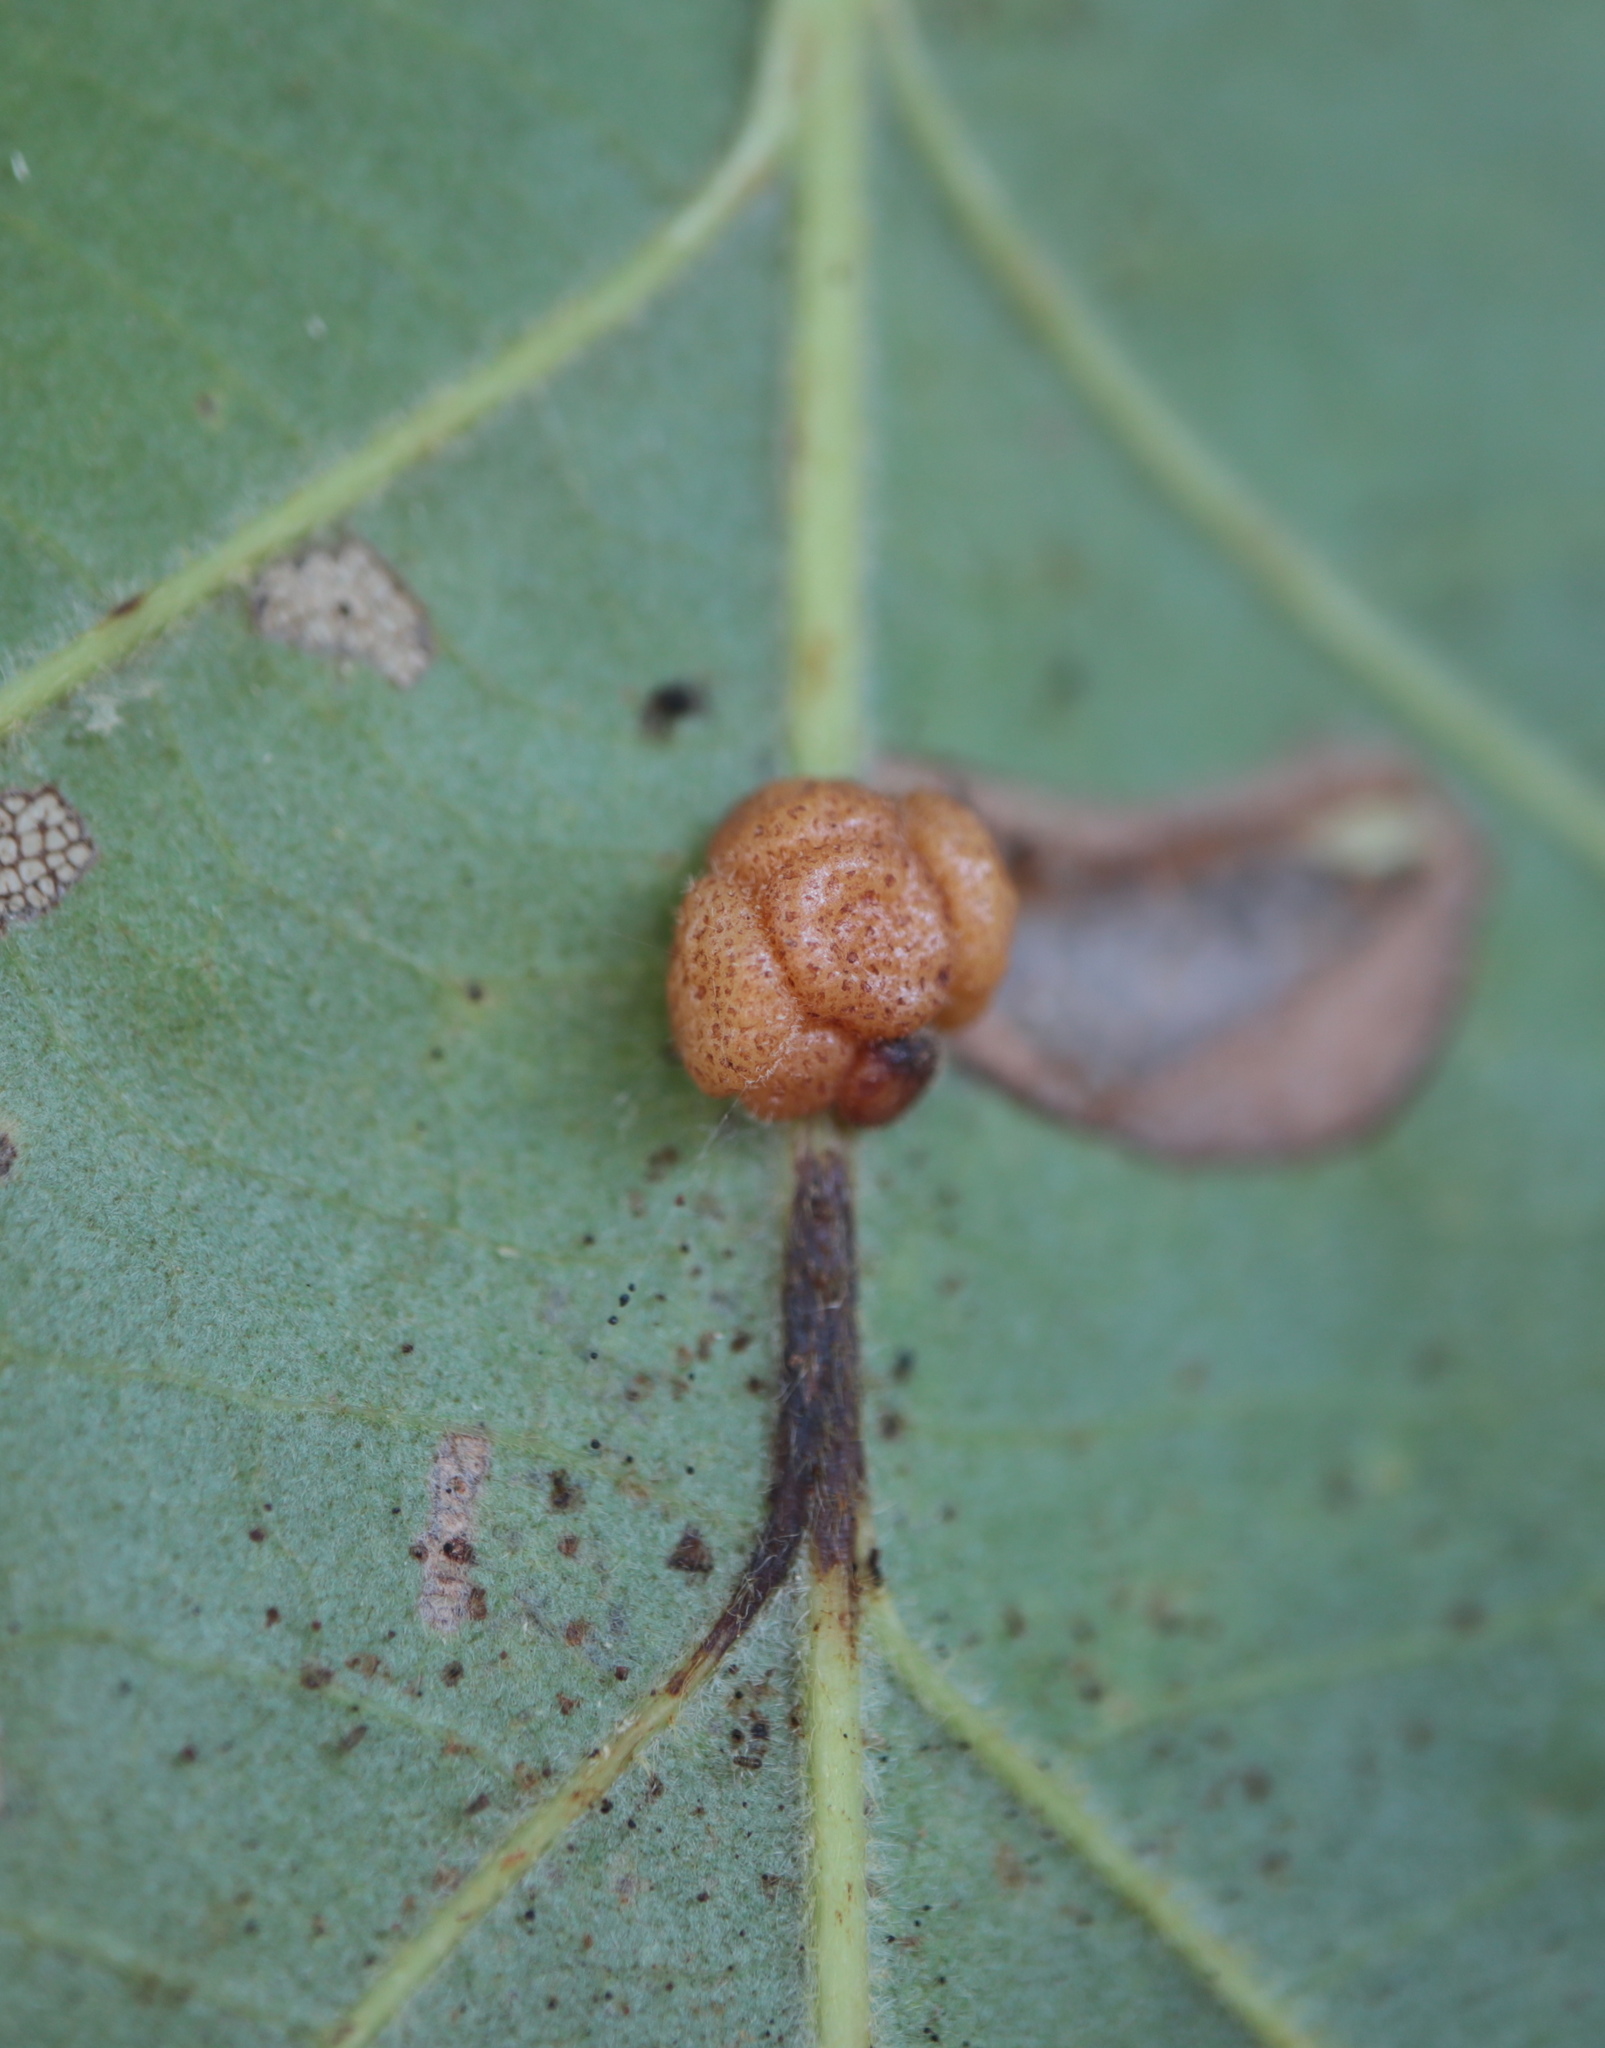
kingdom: Animalia
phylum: Arthropoda
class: Insecta
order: Hymenoptera
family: Cynipidae
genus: Andricus
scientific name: Andricus
